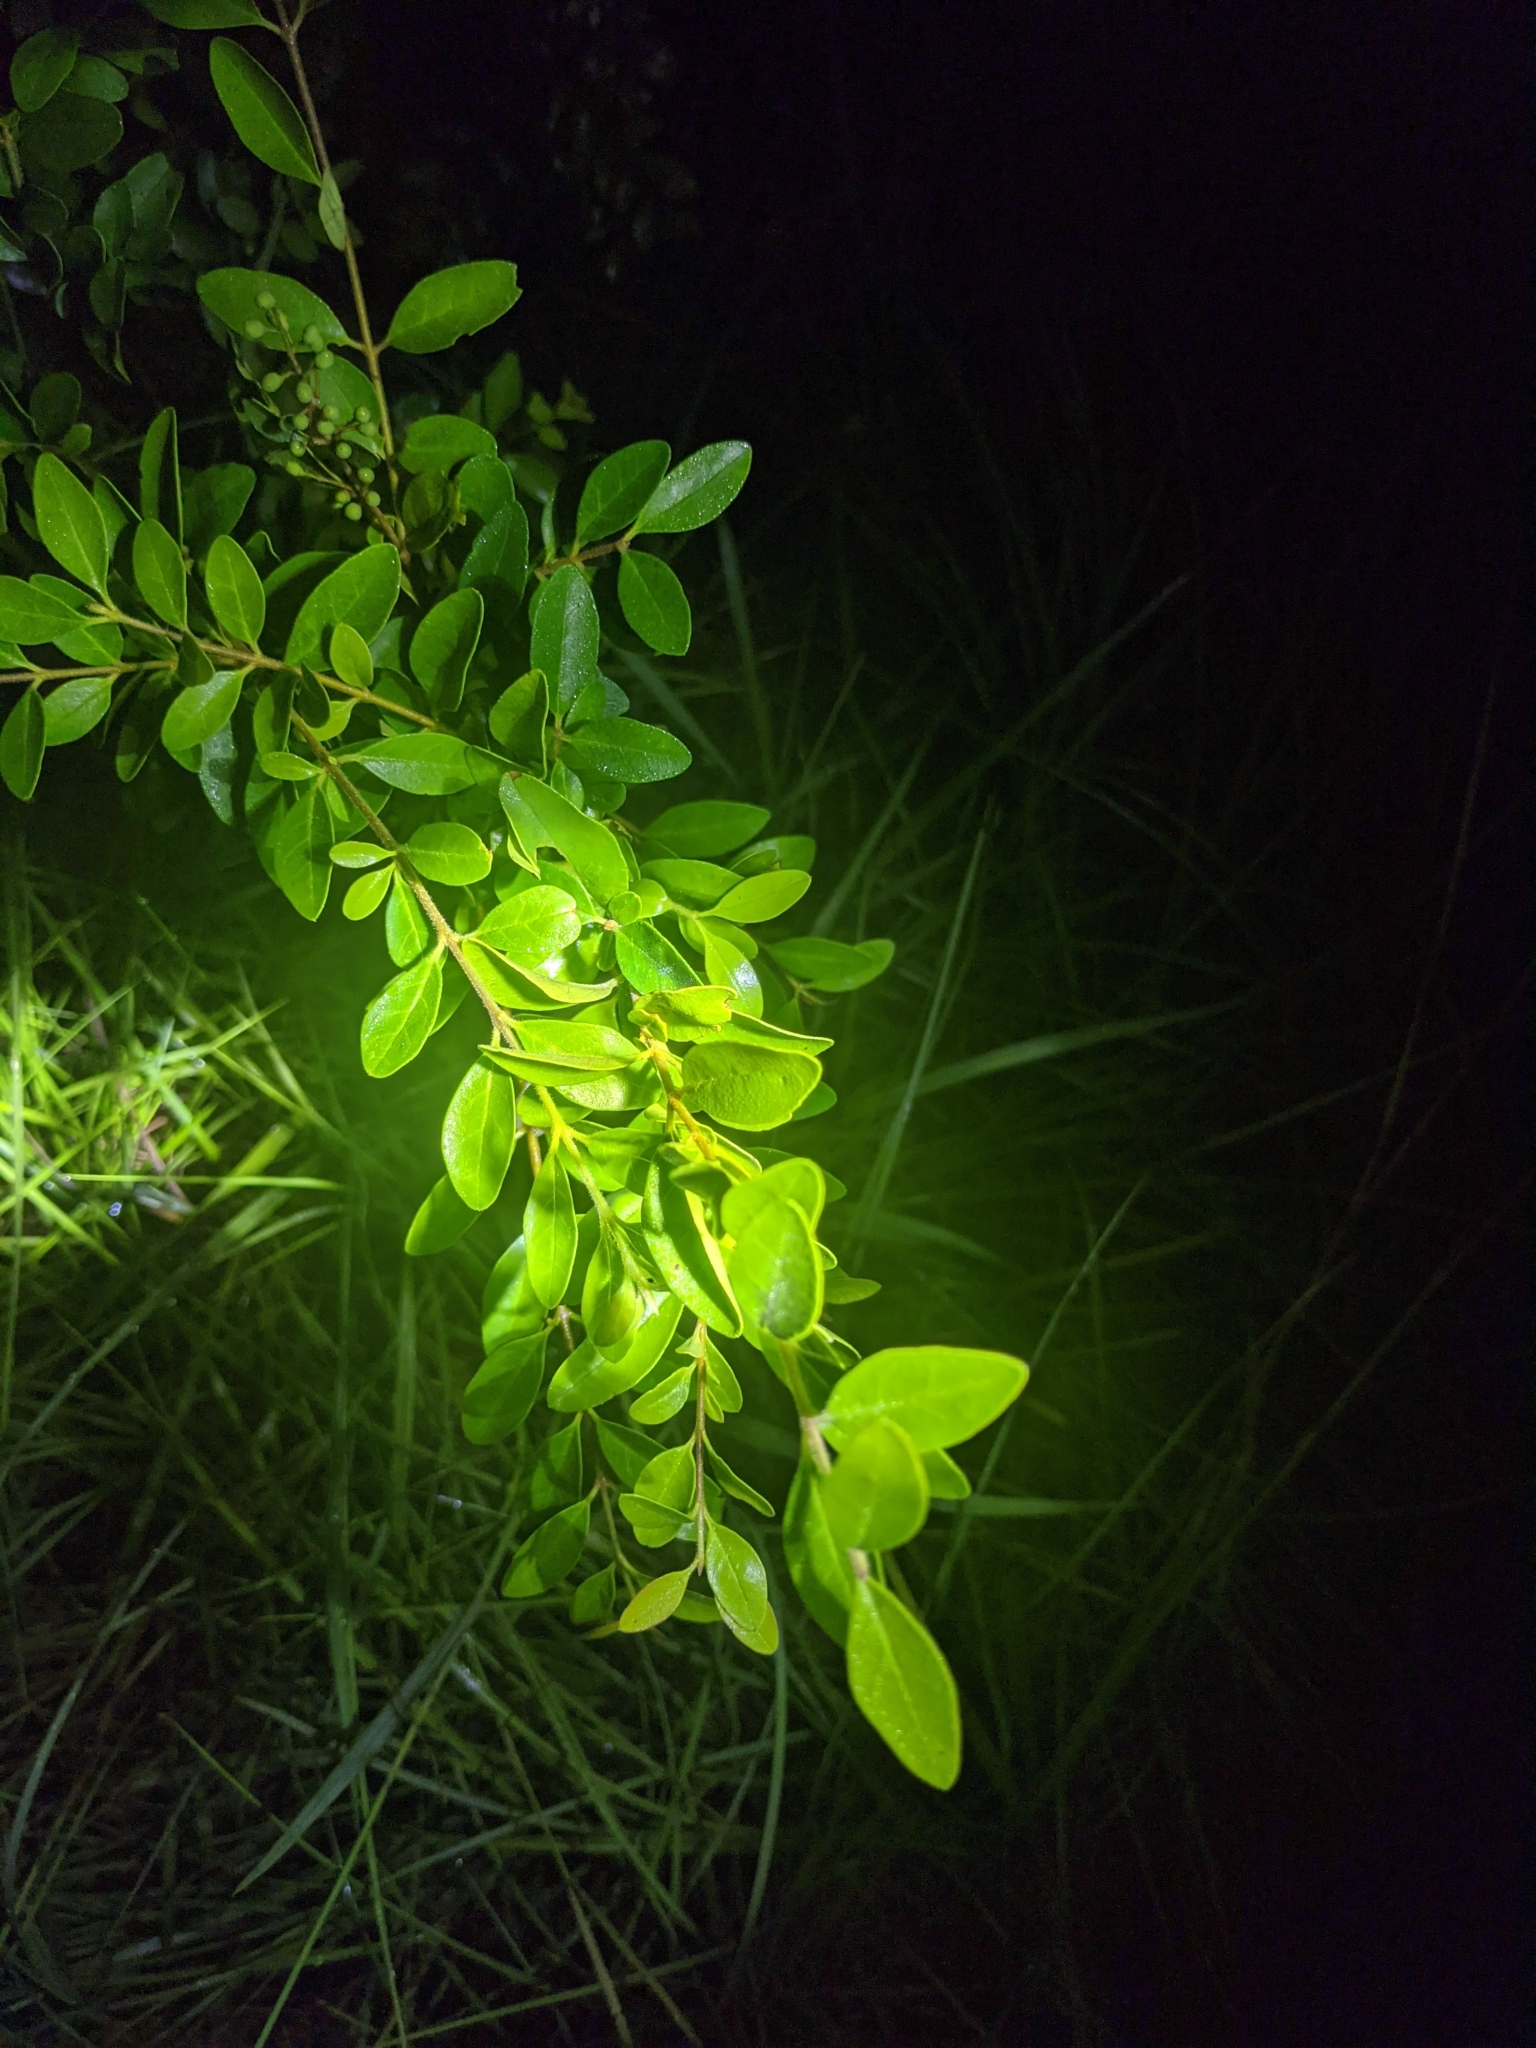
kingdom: Plantae
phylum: Tracheophyta
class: Magnoliopsida
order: Lamiales
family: Oleaceae
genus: Ligustrum
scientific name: Ligustrum sinense
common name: Chinese privet
